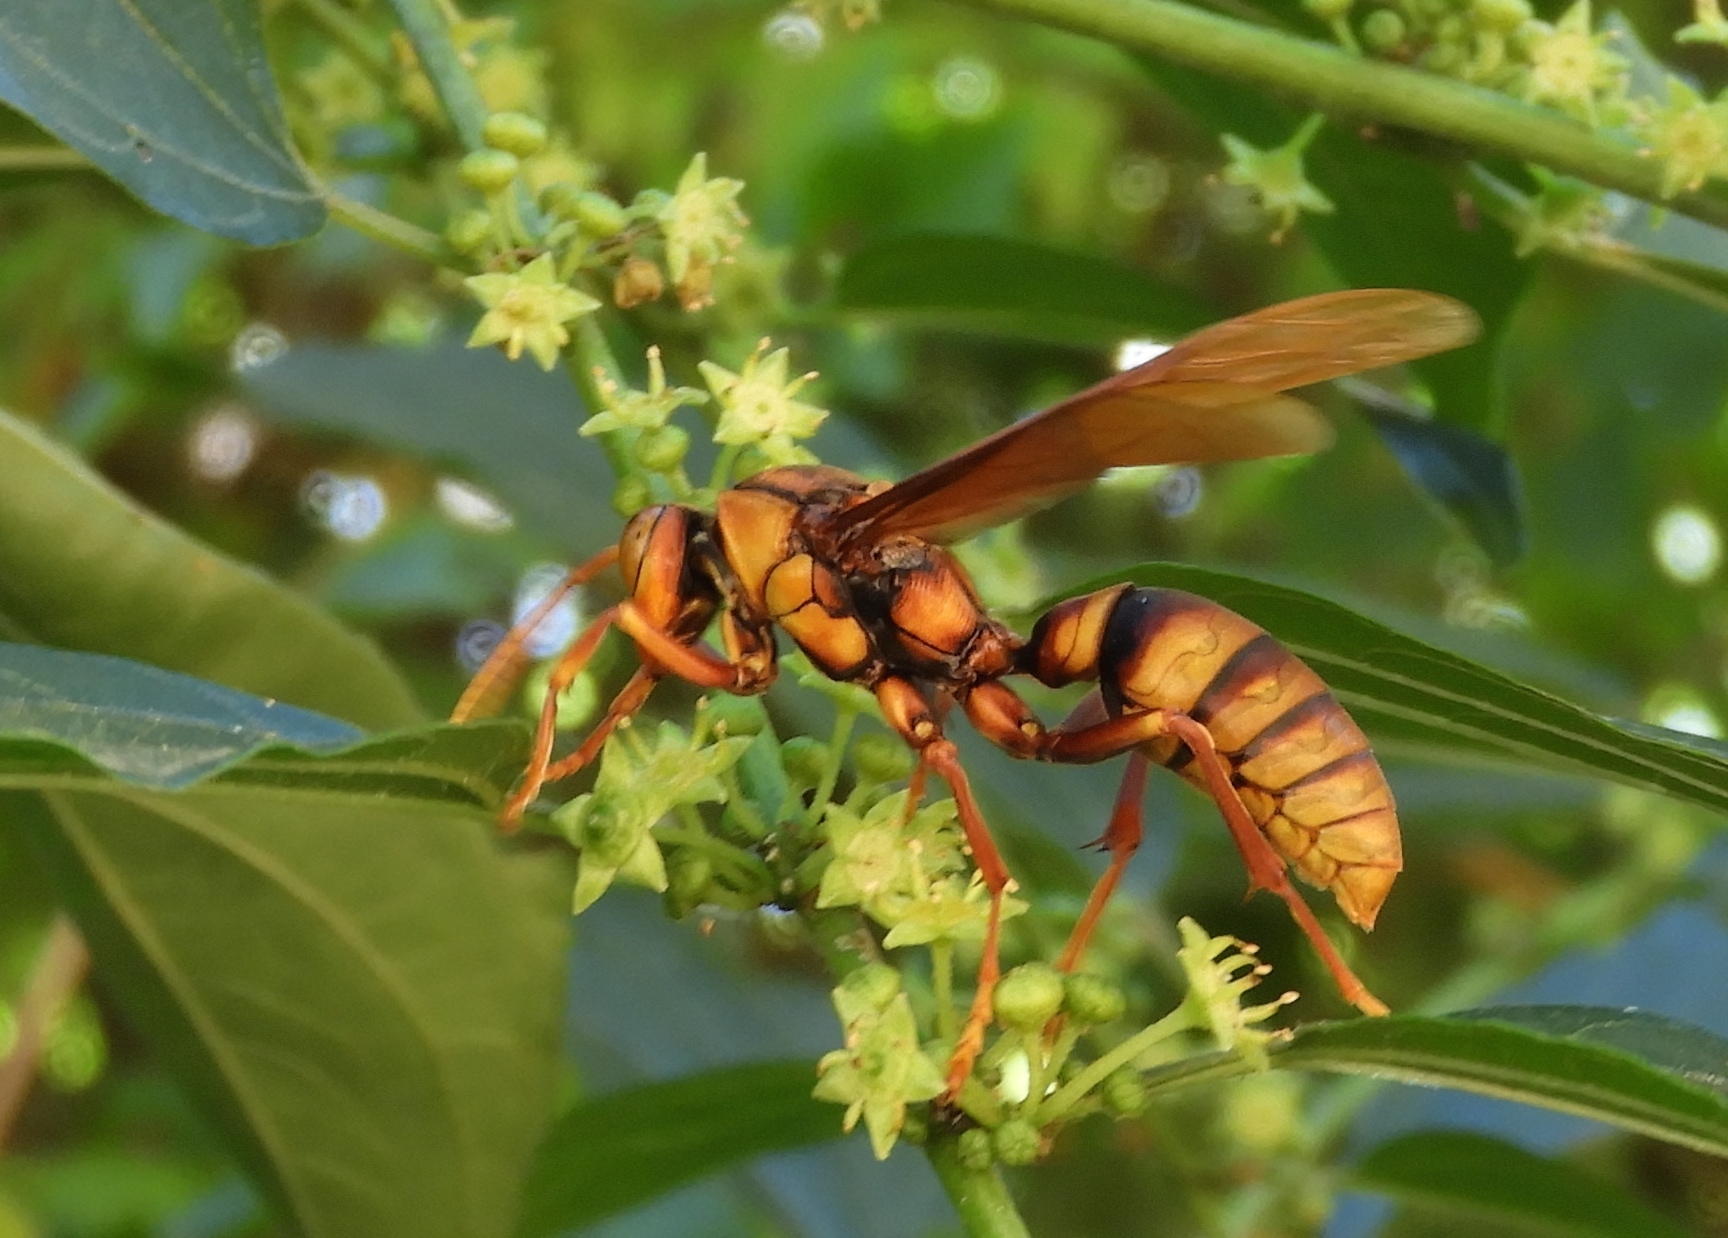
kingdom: Animalia
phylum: Arthropoda
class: Insecta
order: Hymenoptera
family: Eumenidae
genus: Polistes
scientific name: Polistes carnifex
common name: Paper wasp
